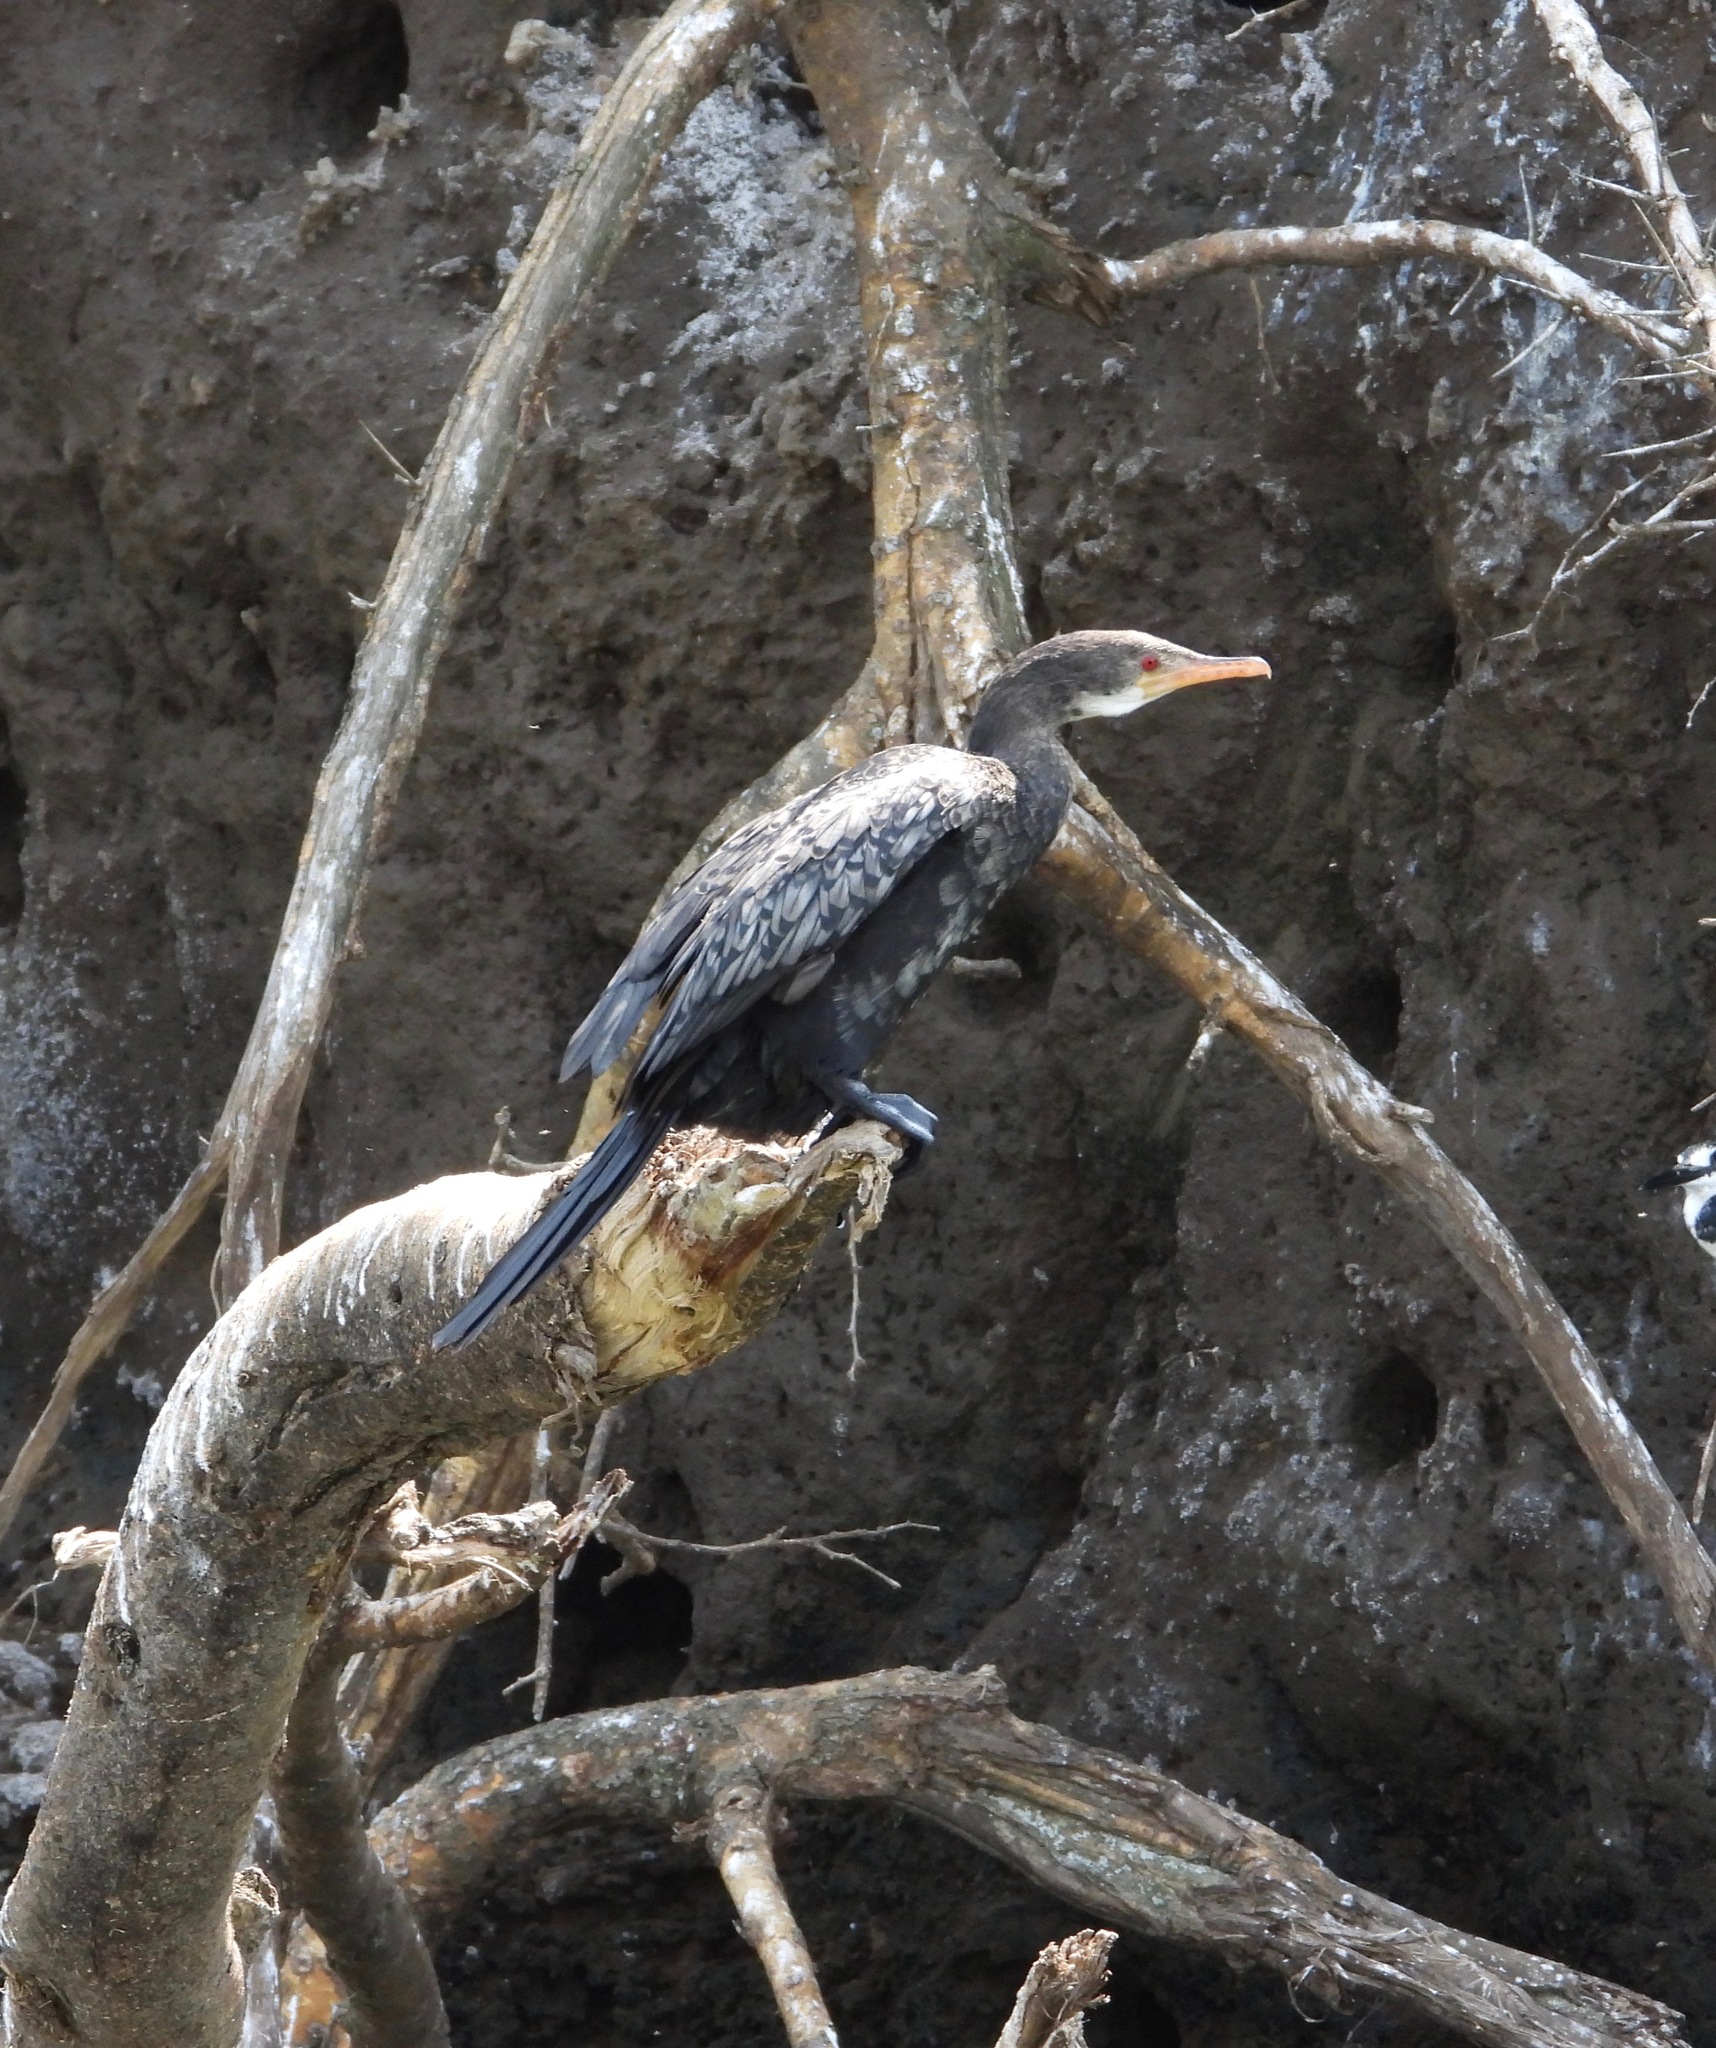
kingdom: Animalia
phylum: Chordata
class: Aves
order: Suliformes
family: Phalacrocoracidae
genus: Microcarbo
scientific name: Microcarbo africanus
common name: Long-tailed cormorant
